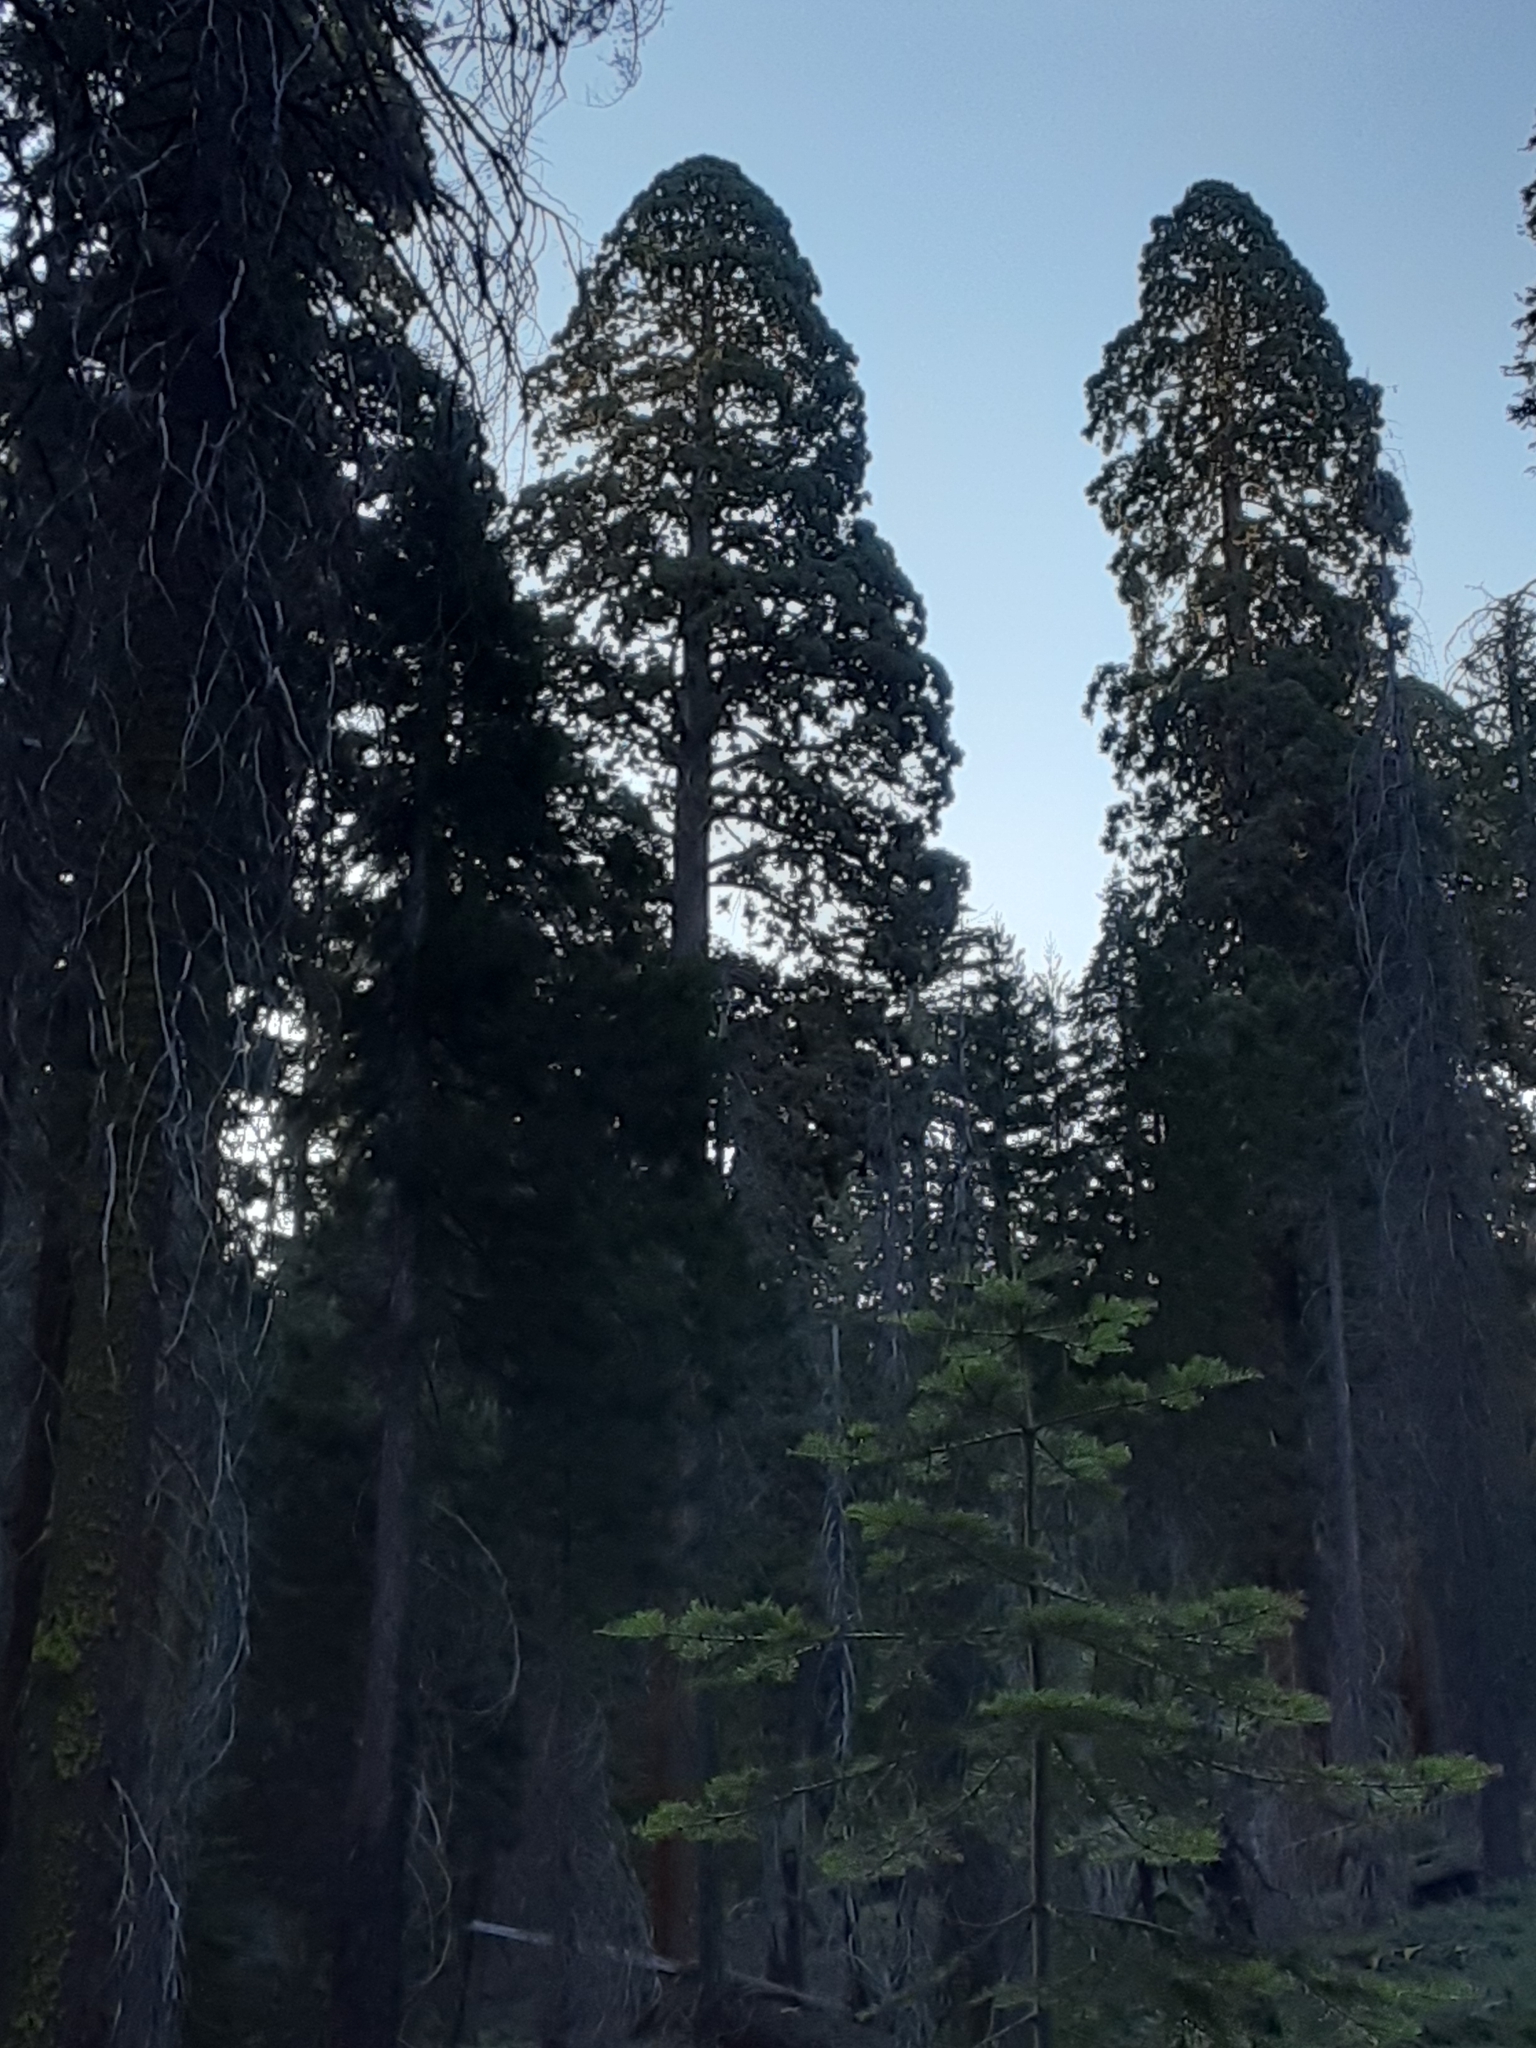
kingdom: Plantae
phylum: Tracheophyta
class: Pinopsida
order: Pinales
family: Cupressaceae
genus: Sequoiadendron
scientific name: Sequoiadendron giganteum
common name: Wellingtonia
